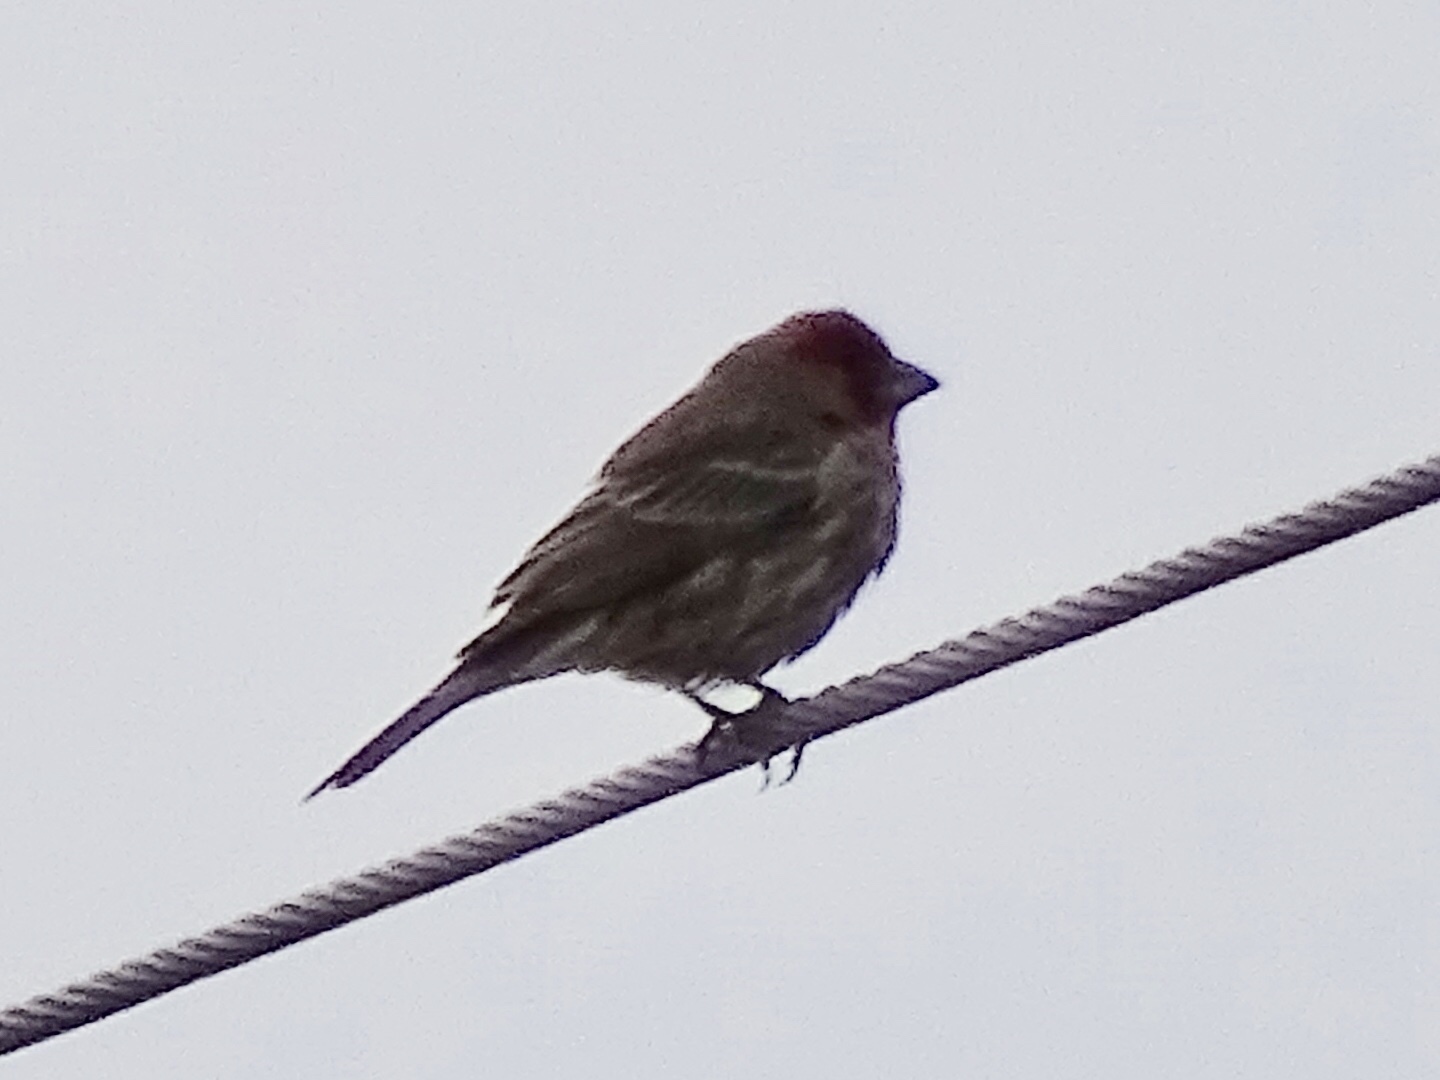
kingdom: Animalia
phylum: Chordata
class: Aves
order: Passeriformes
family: Fringillidae
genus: Haemorhous
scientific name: Haemorhous mexicanus
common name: House finch
